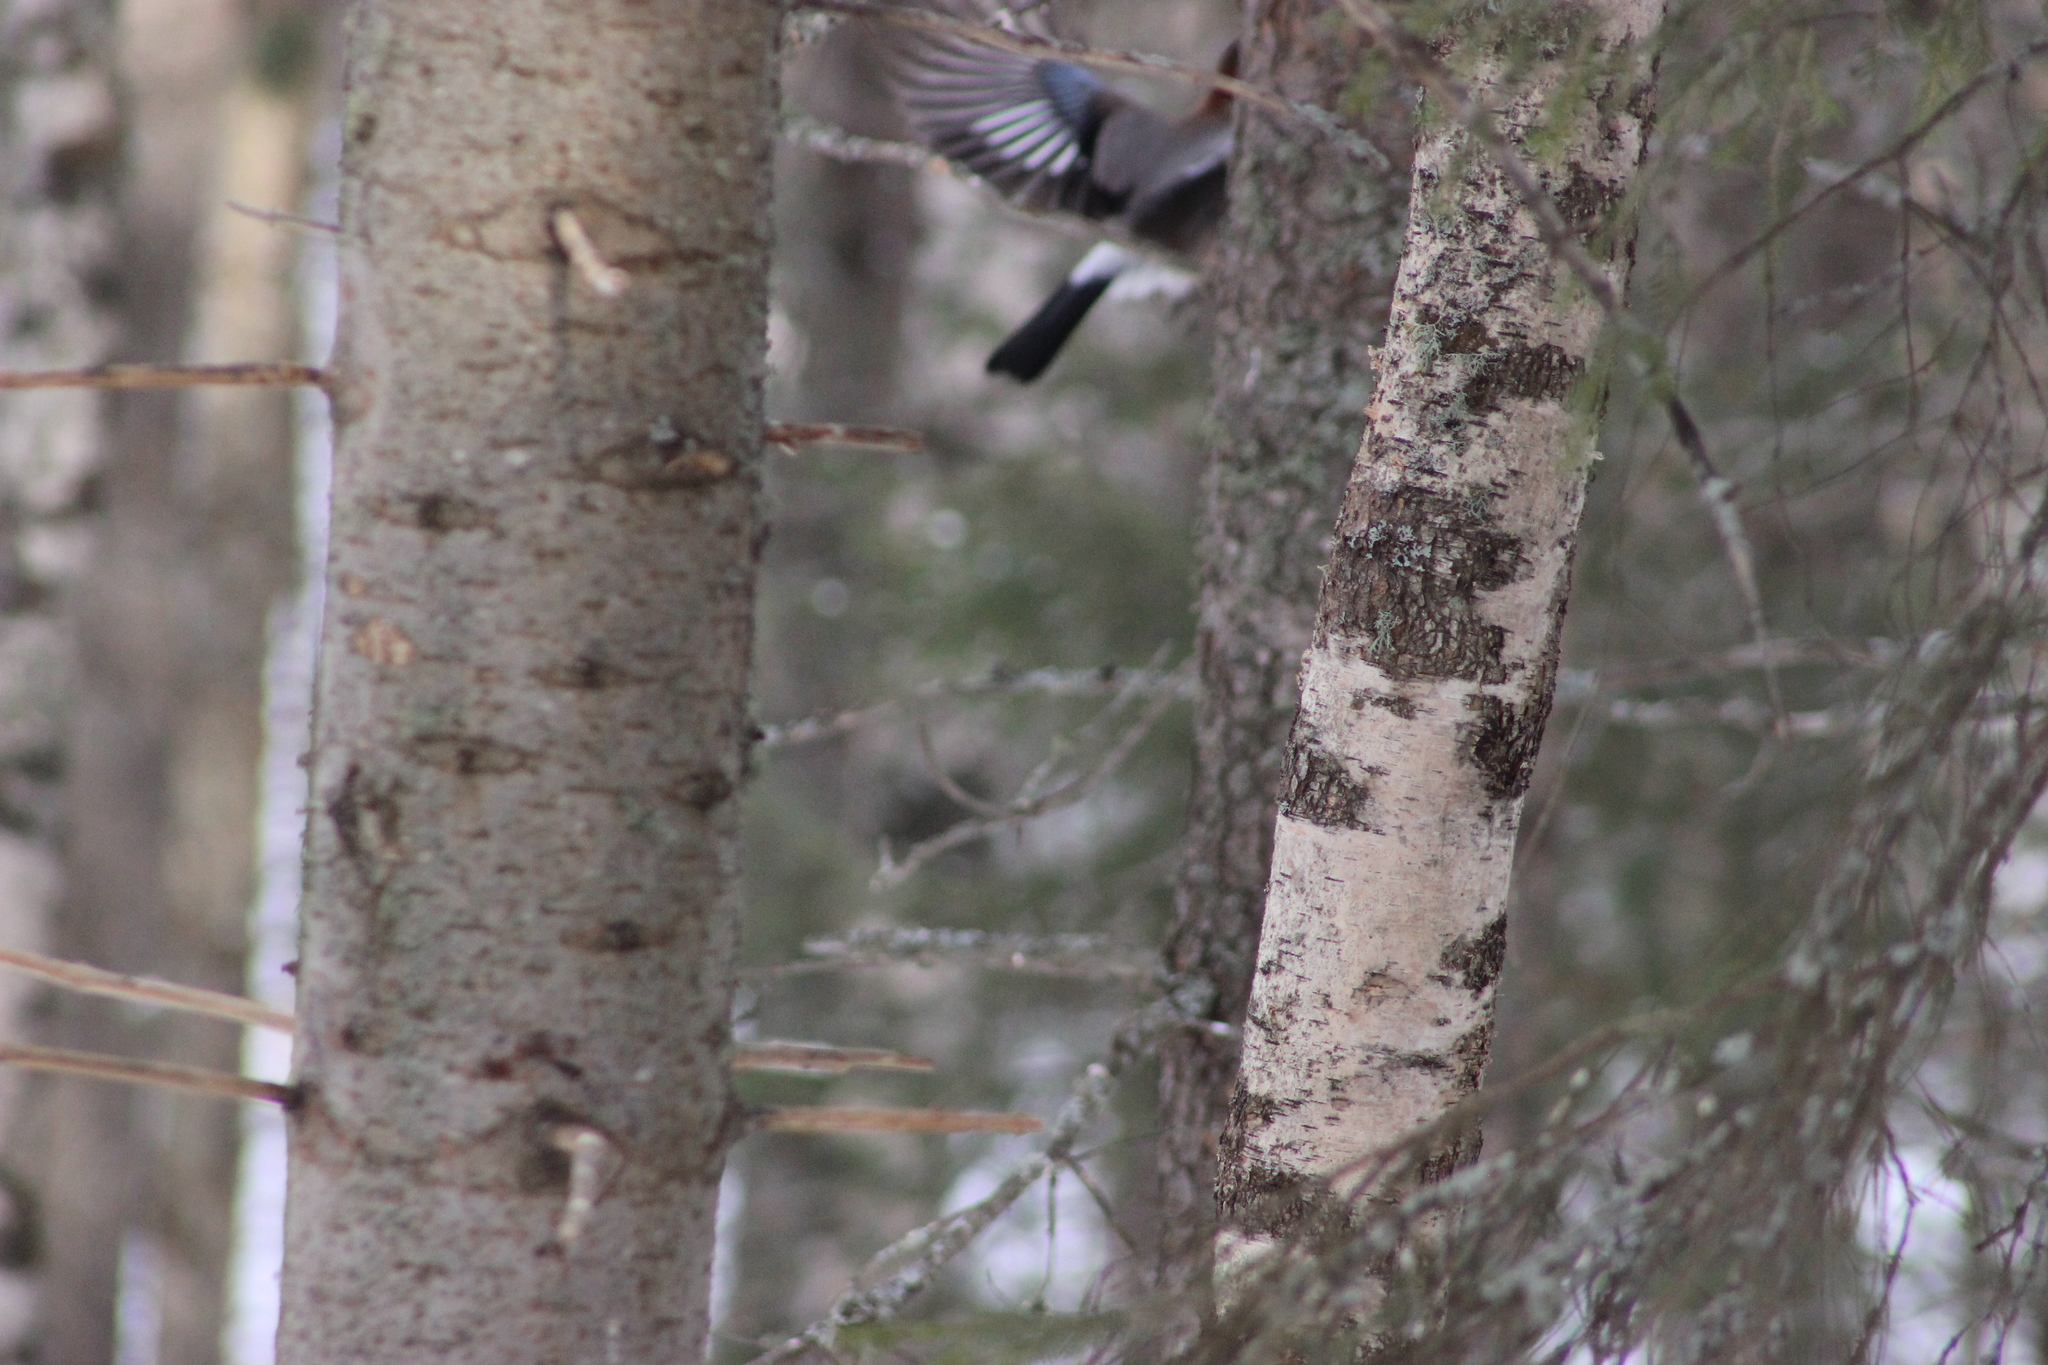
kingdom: Animalia
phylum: Chordata
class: Aves
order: Passeriformes
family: Corvidae
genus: Garrulus
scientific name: Garrulus glandarius
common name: Eurasian jay
